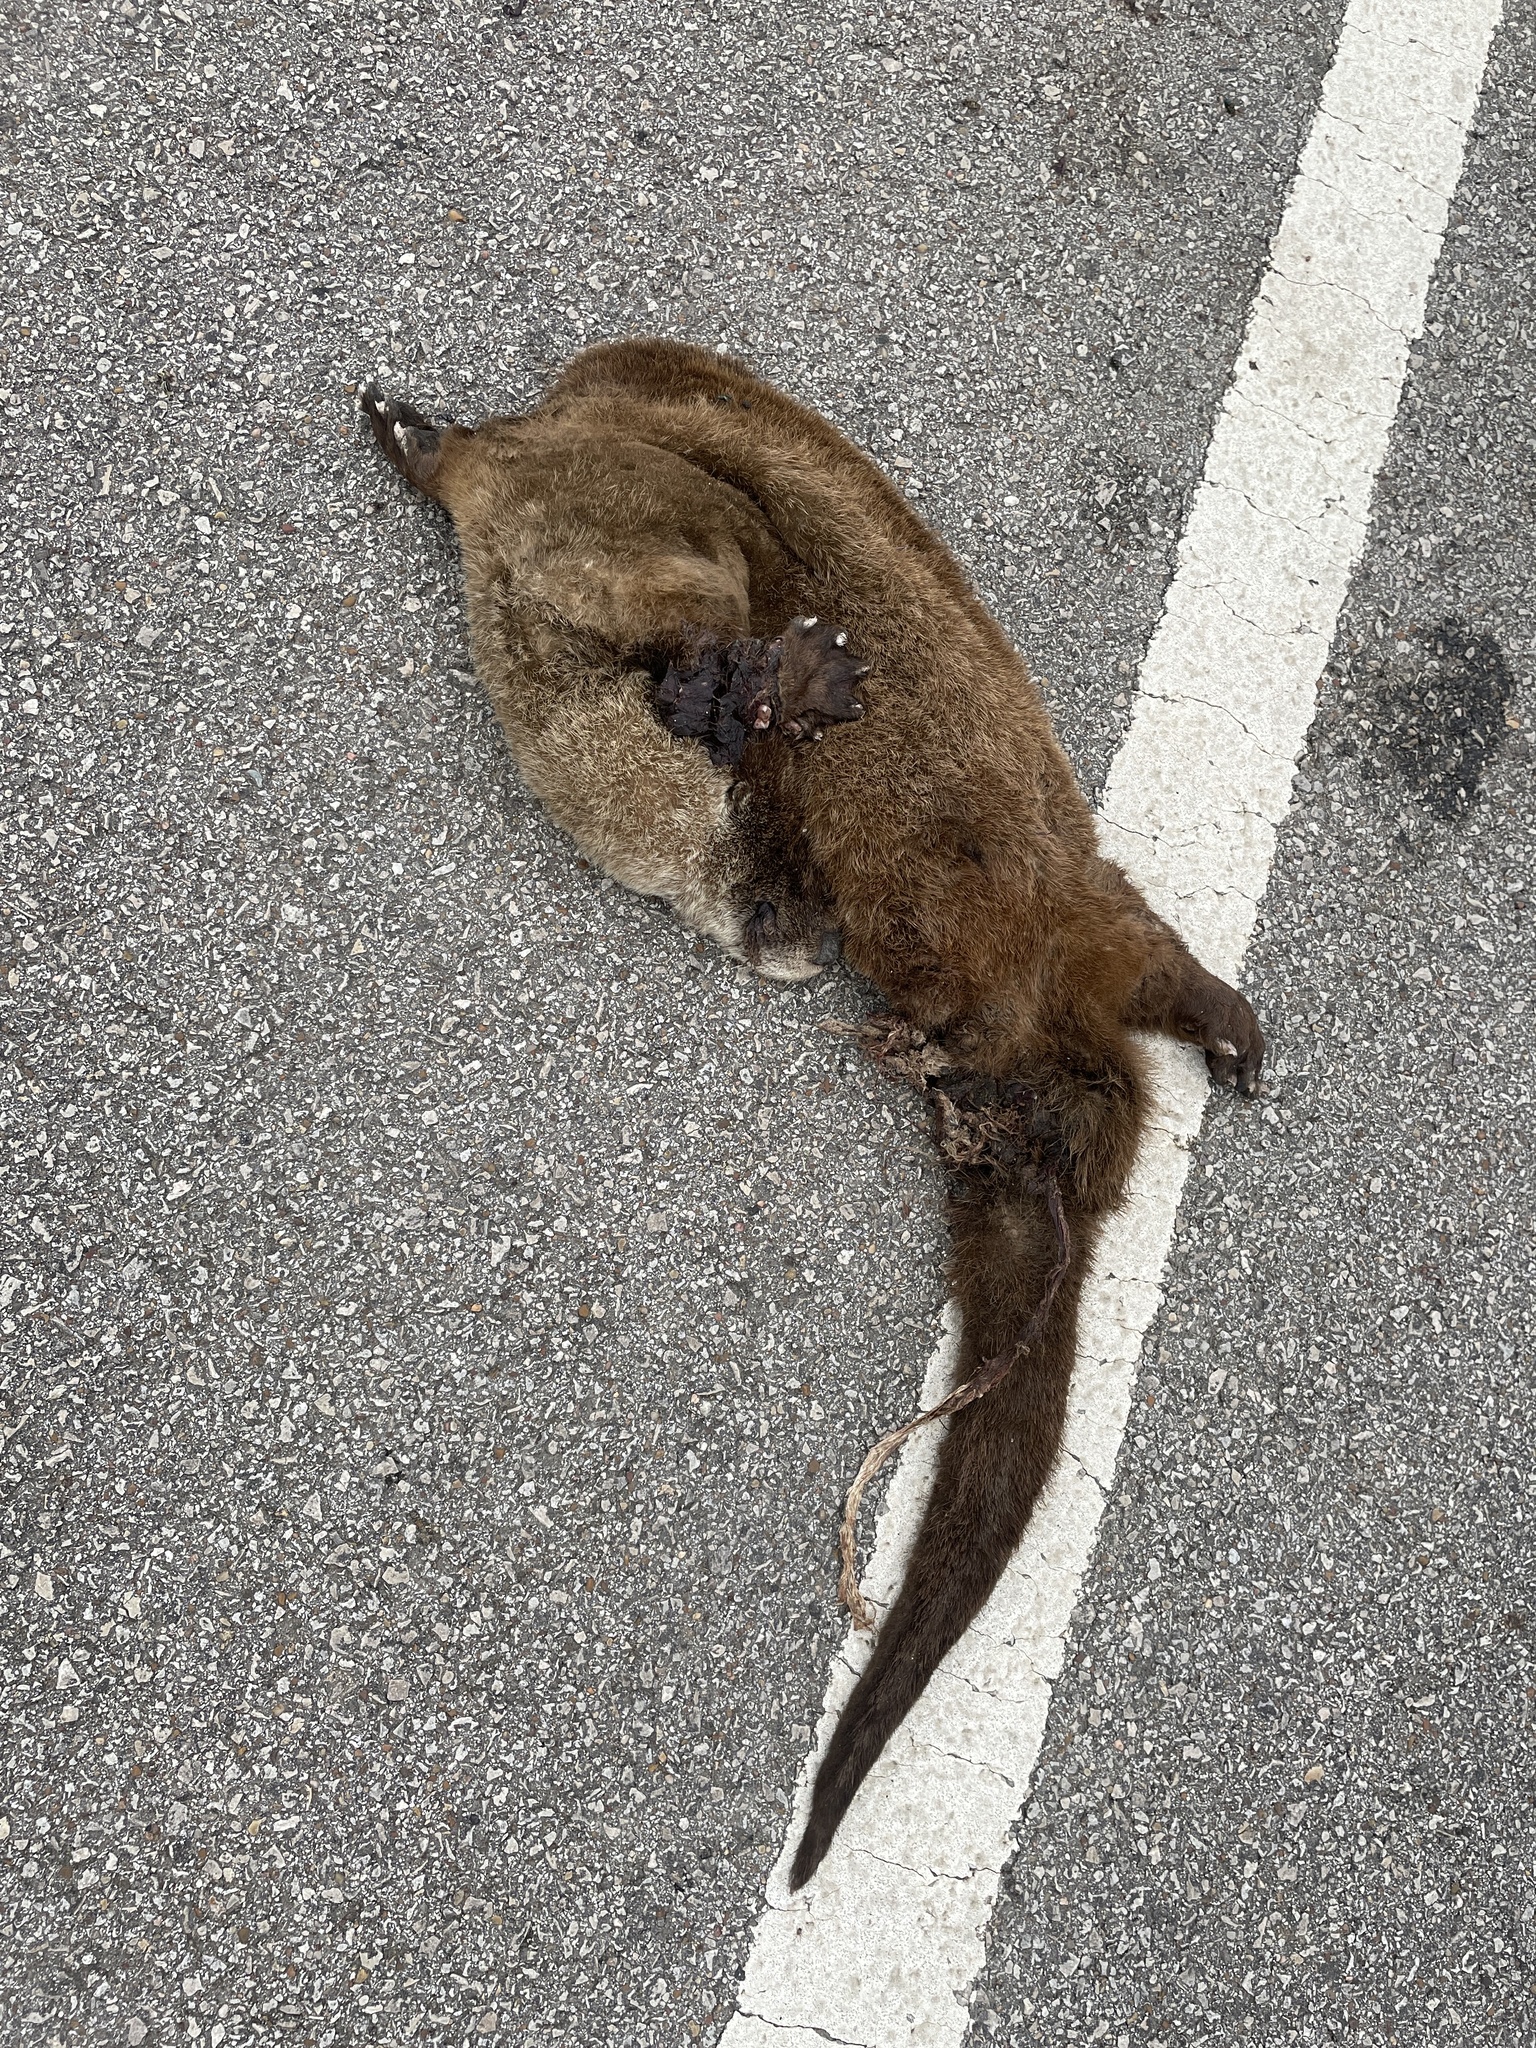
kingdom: Animalia
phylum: Chordata
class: Mammalia
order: Carnivora
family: Mustelidae
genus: Lontra
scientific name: Lontra canadensis
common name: North american river otter
